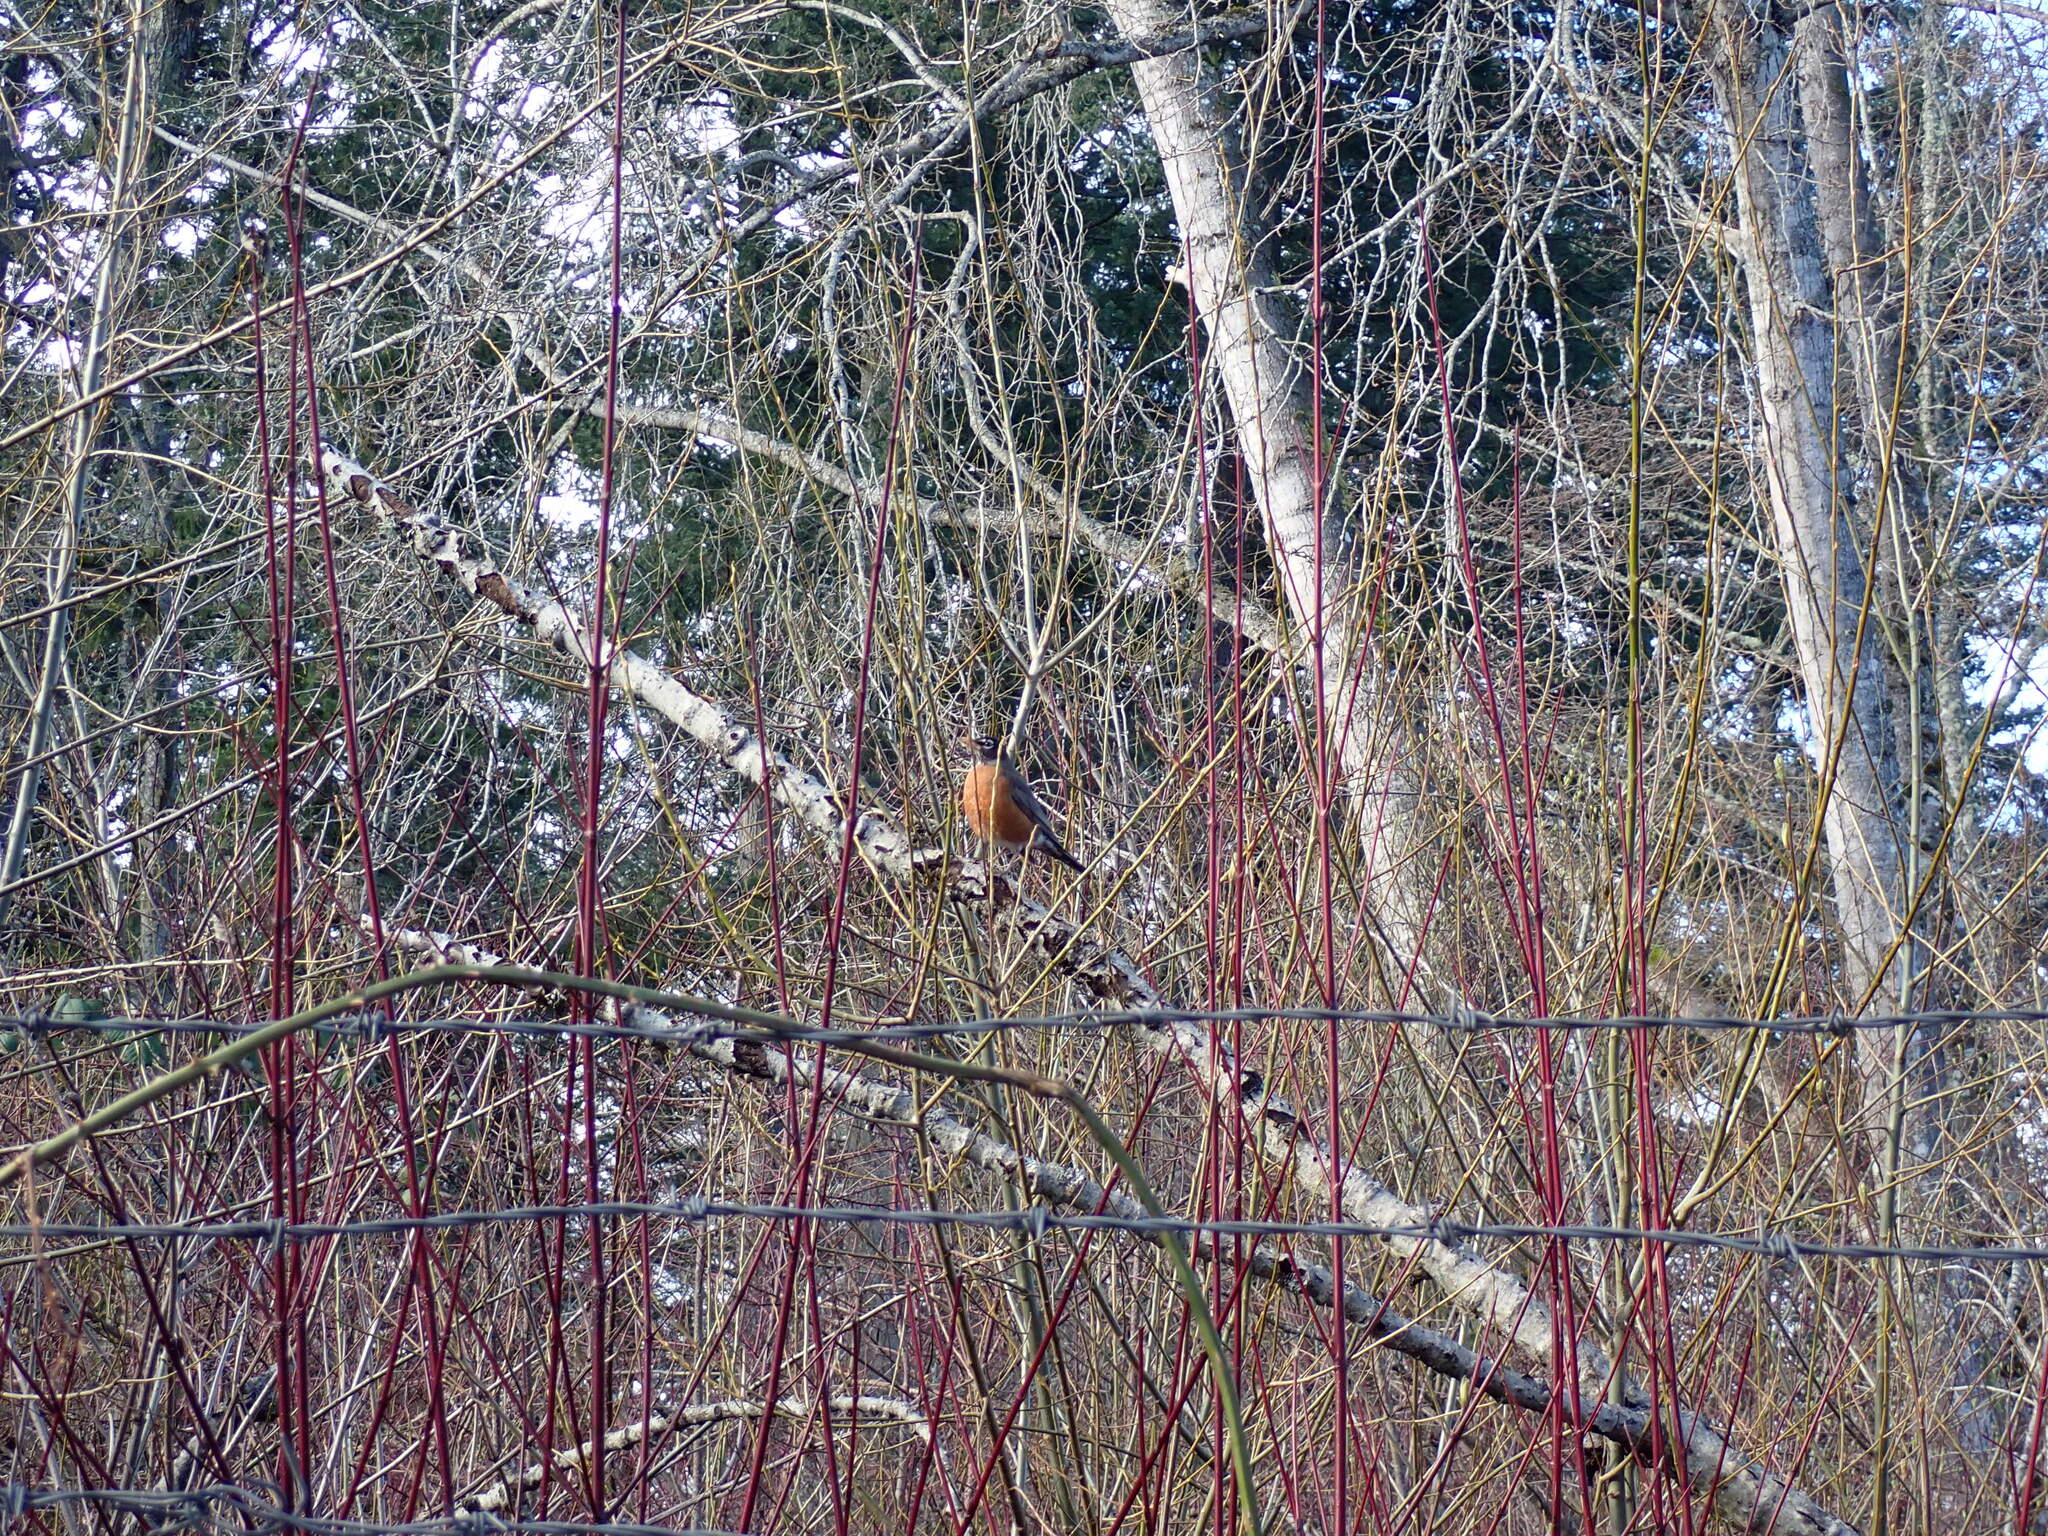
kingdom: Animalia
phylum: Chordata
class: Aves
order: Passeriformes
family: Turdidae
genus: Turdus
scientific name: Turdus migratorius
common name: American robin
